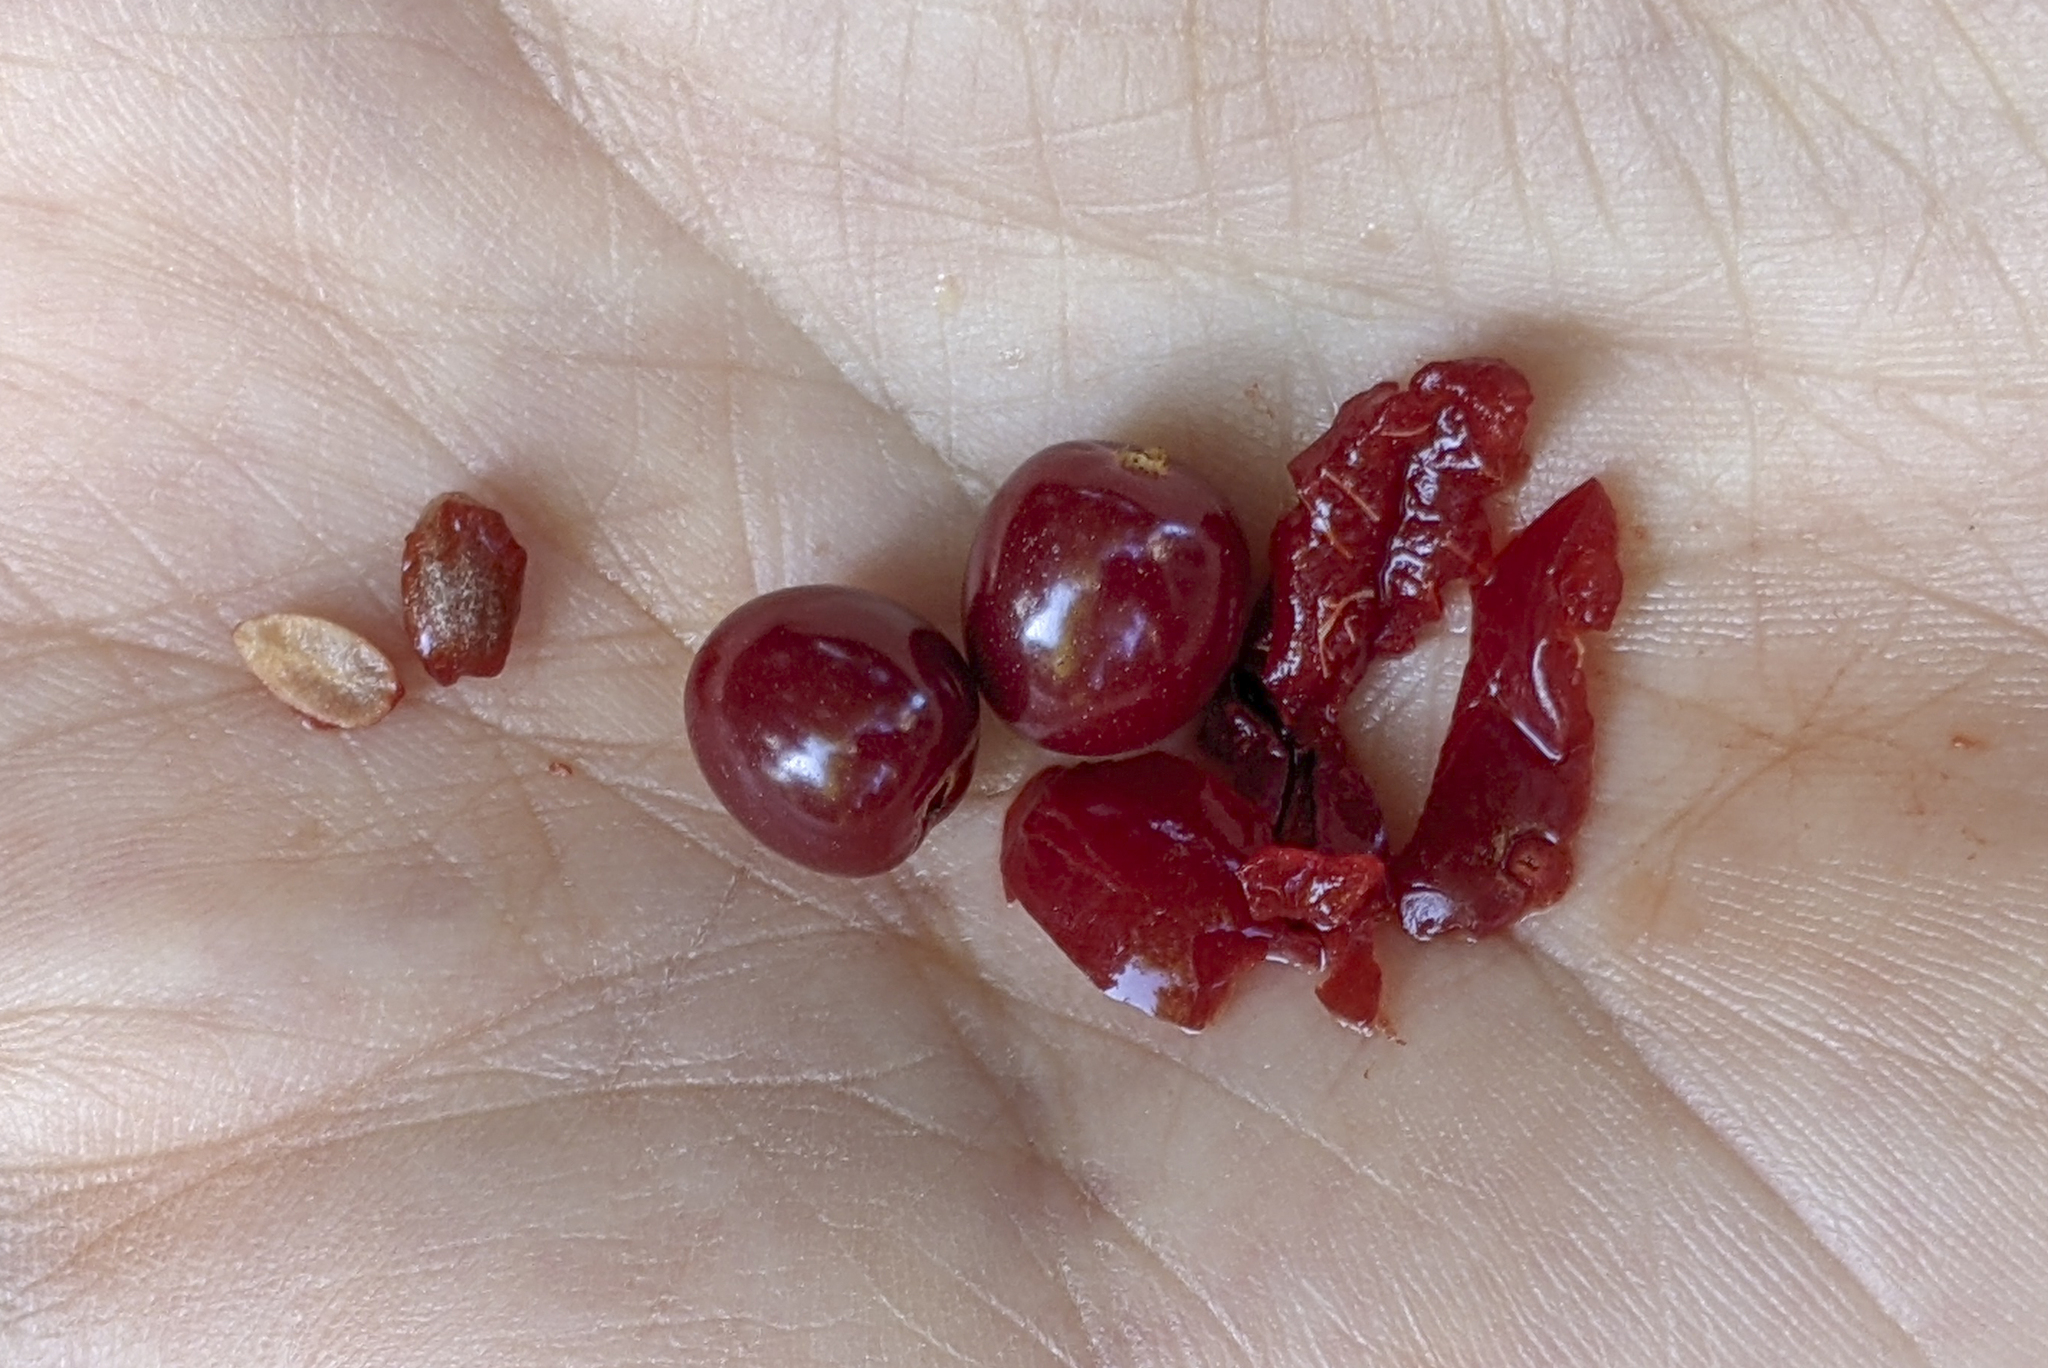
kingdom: Plantae
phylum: Tracheophyta
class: Magnoliopsida
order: Gentianales
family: Rubiaceae
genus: Psychotria
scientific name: Psychotria nervosa
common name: Bastard cankerberry
